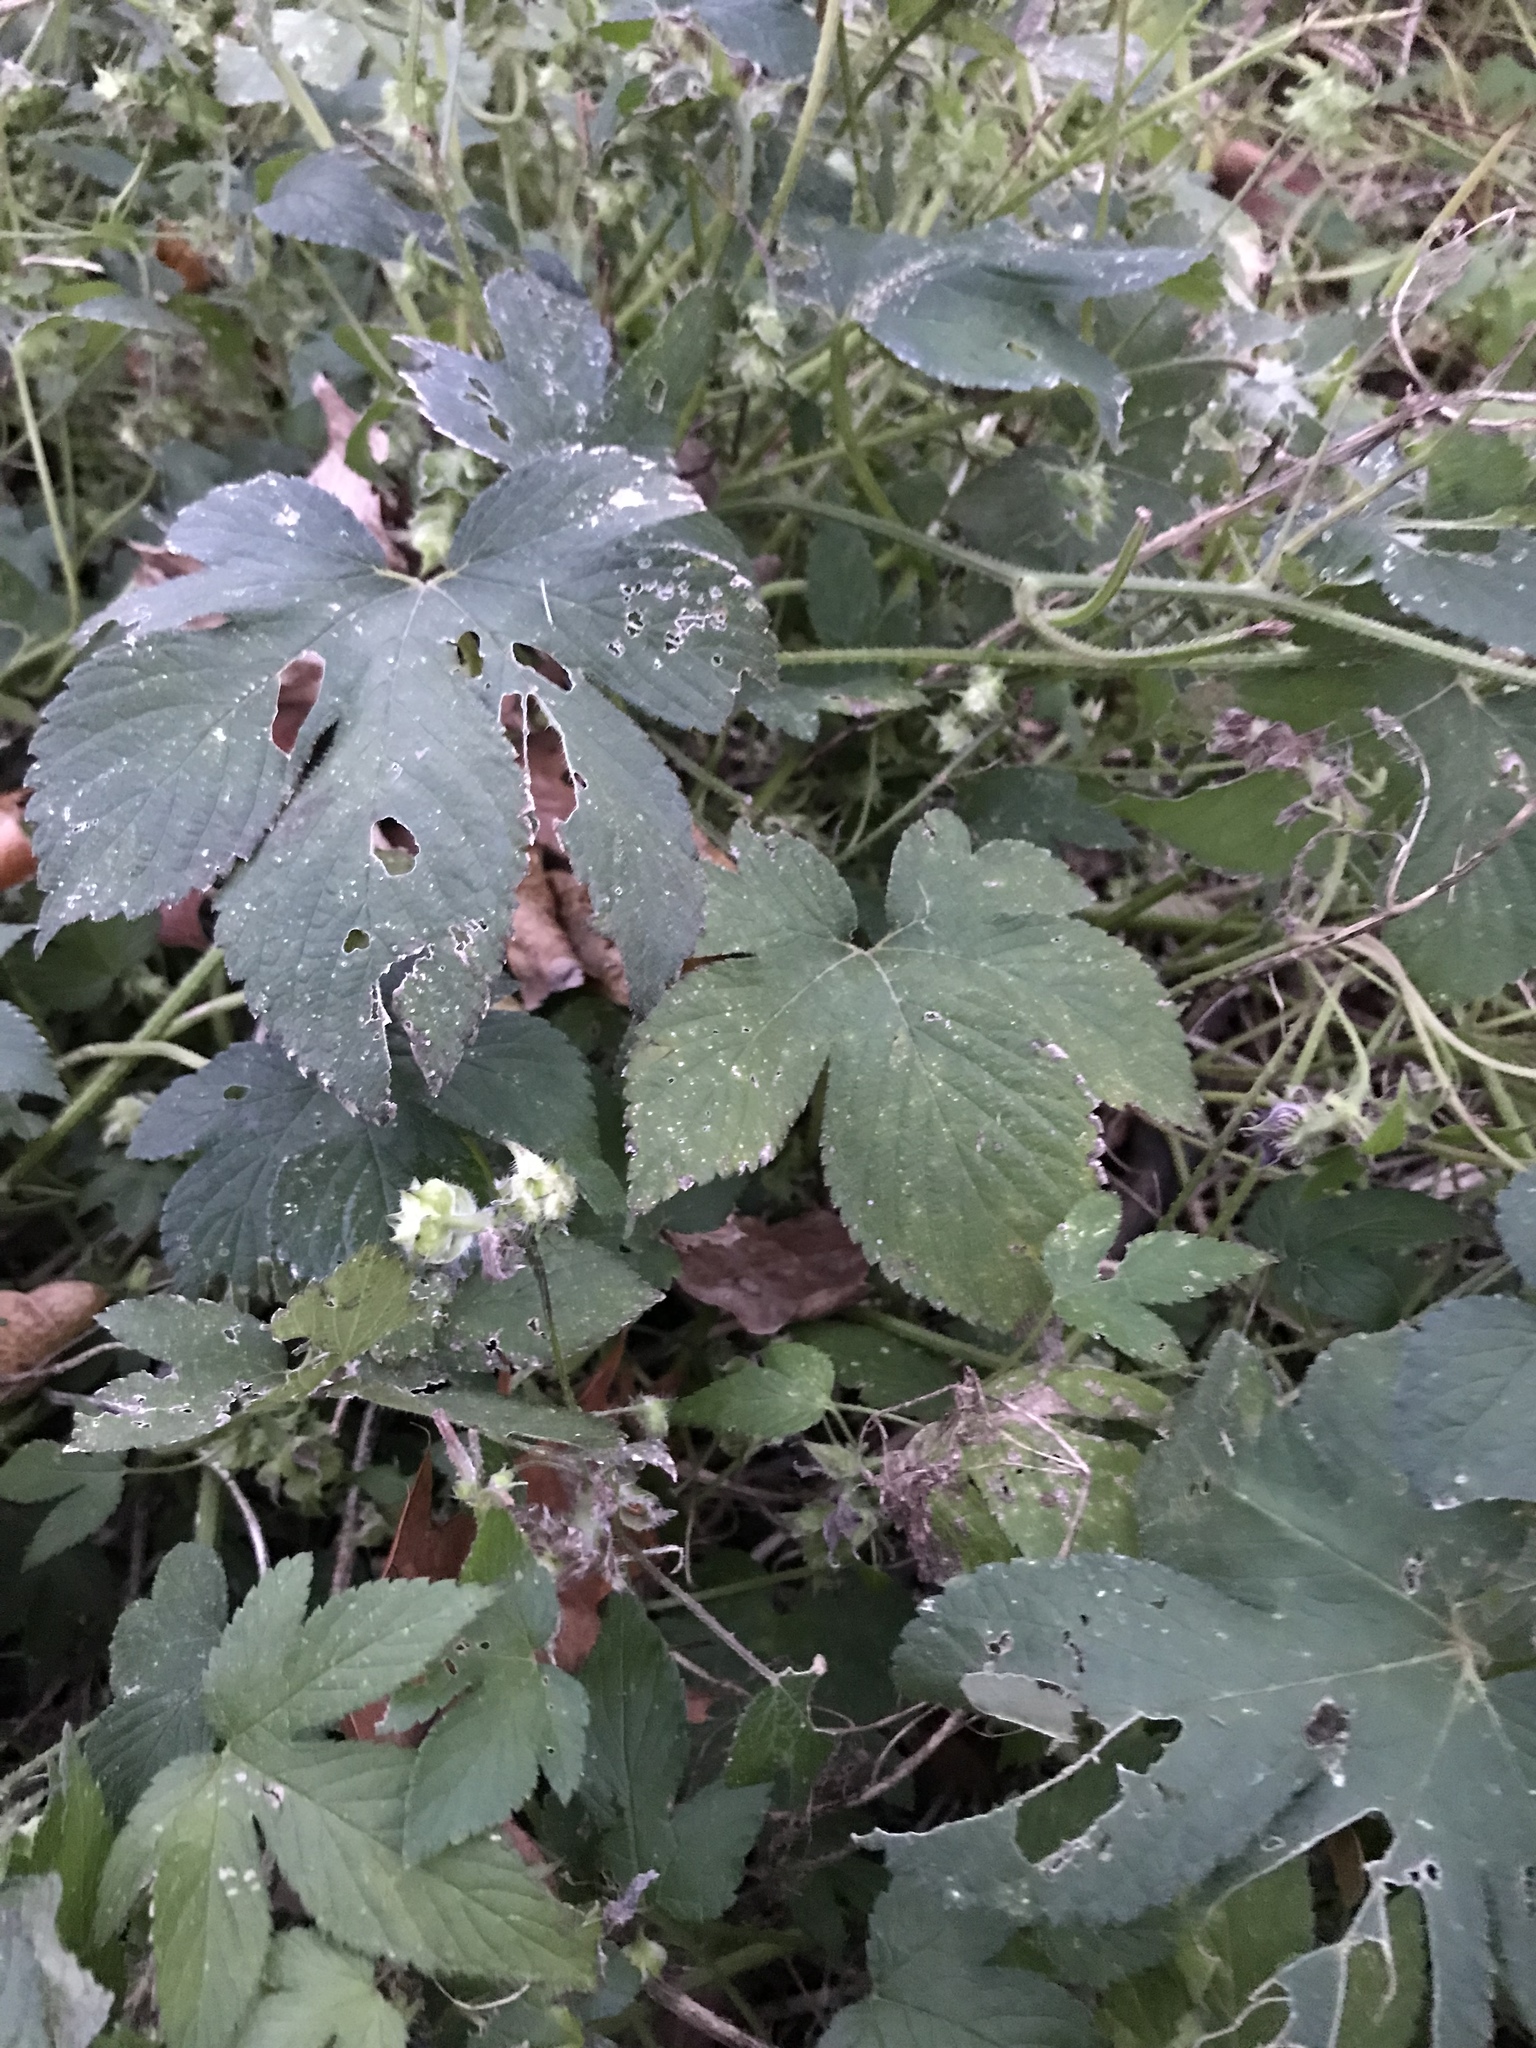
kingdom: Plantae
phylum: Tracheophyta
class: Magnoliopsida
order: Rosales
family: Cannabaceae
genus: Humulus
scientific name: Humulus scandens
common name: Japanese hop
